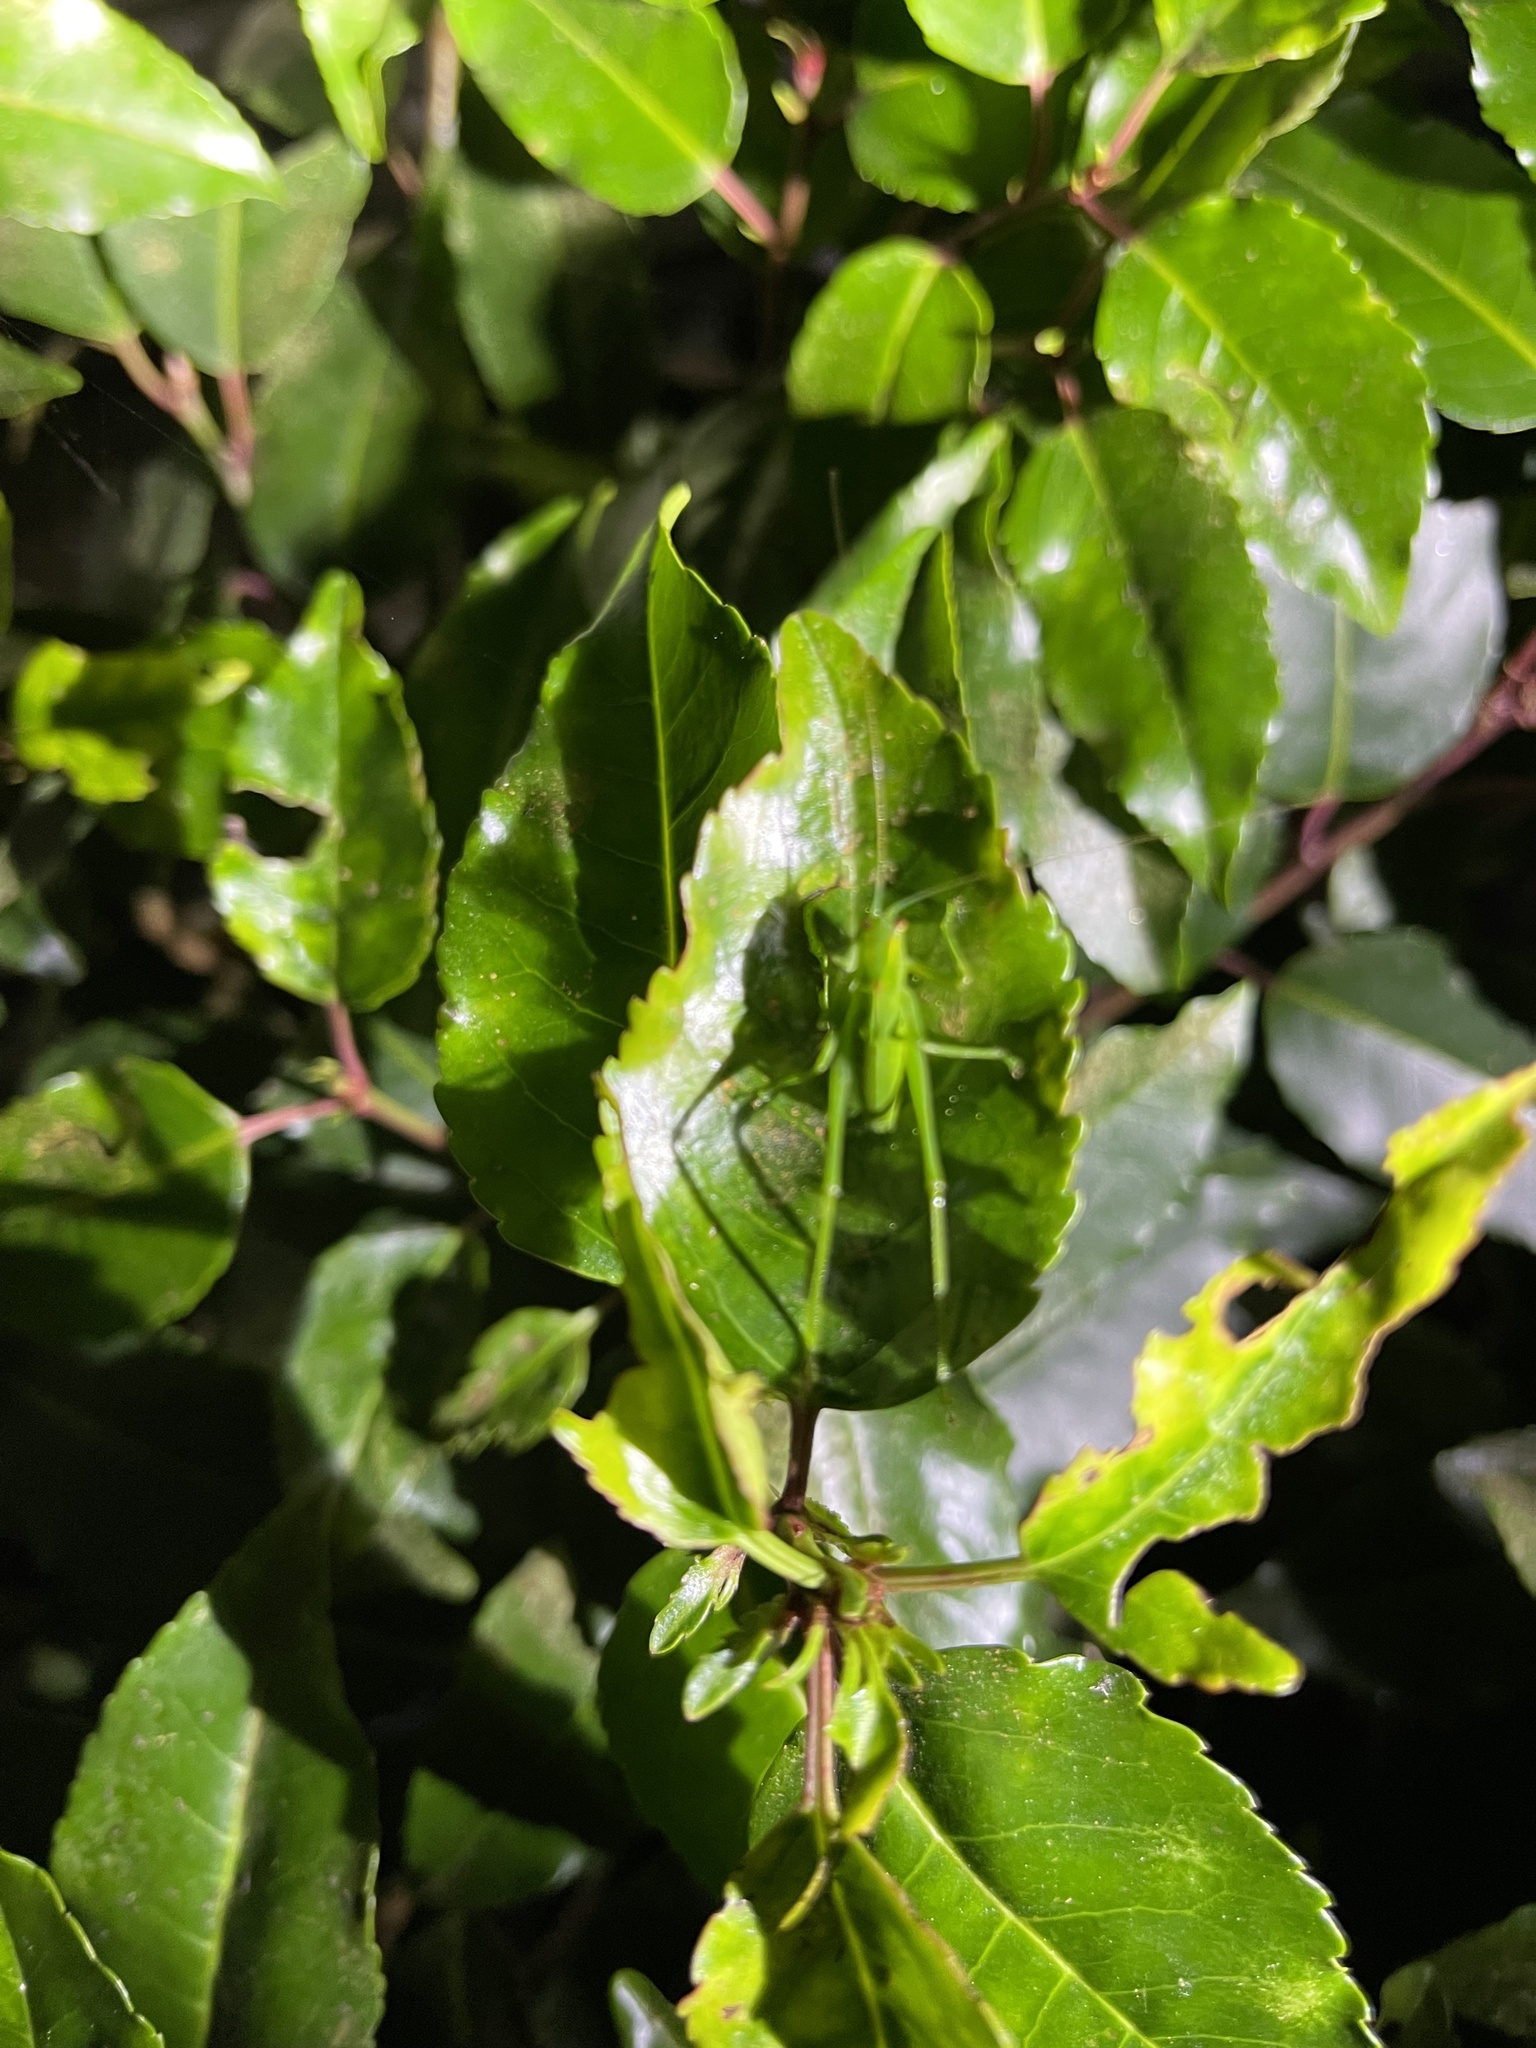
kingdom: Animalia
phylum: Arthropoda
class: Insecta
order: Orthoptera
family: Tettigoniidae
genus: Caedicia
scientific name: Caedicia simplex
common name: Common garden katydid
